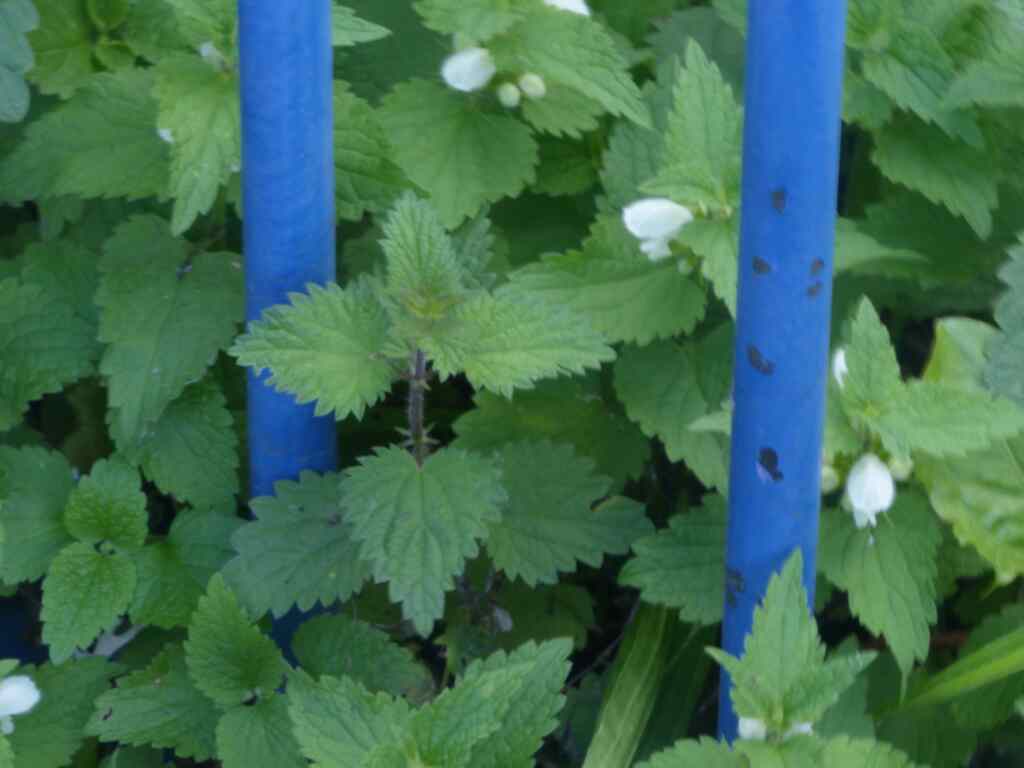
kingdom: Plantae
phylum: Tracheophyta
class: Magnoliopsida
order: Lamiales
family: Lamiaceae
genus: Lamium
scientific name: Lamium album
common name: White dead-nettle
